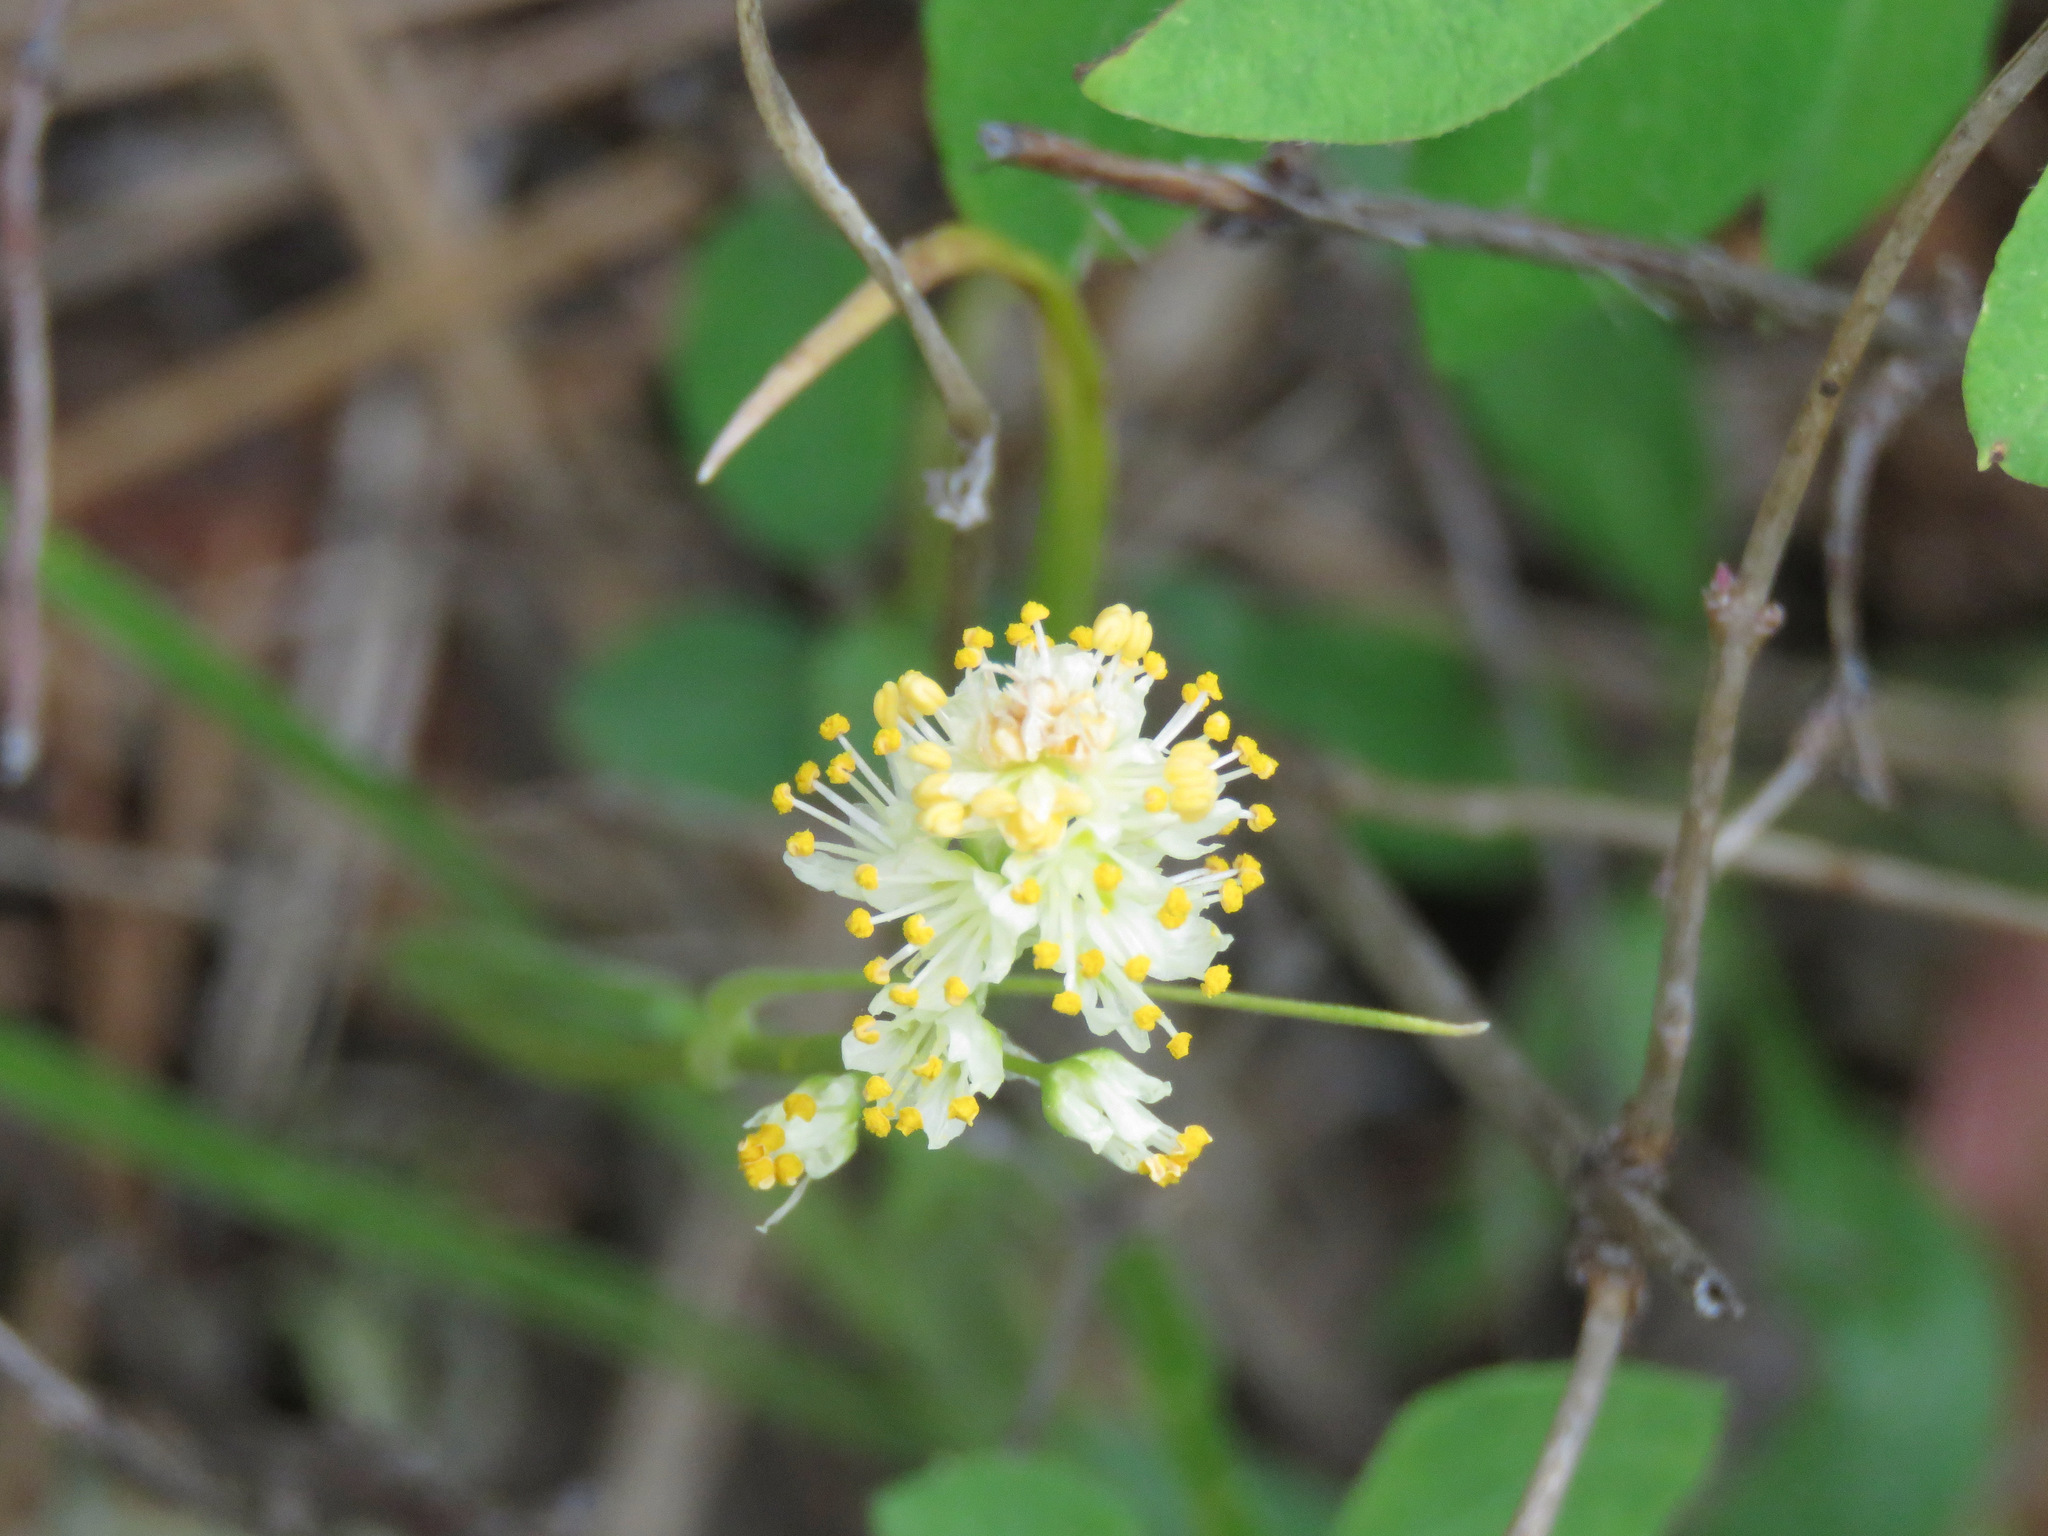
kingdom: Plantae
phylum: Tracheophyta
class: Liliopsida
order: Liliales
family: Melanthiaceae
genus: Toxicoscordion
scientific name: Toxicoscordion venenosum
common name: Meadow death camas
